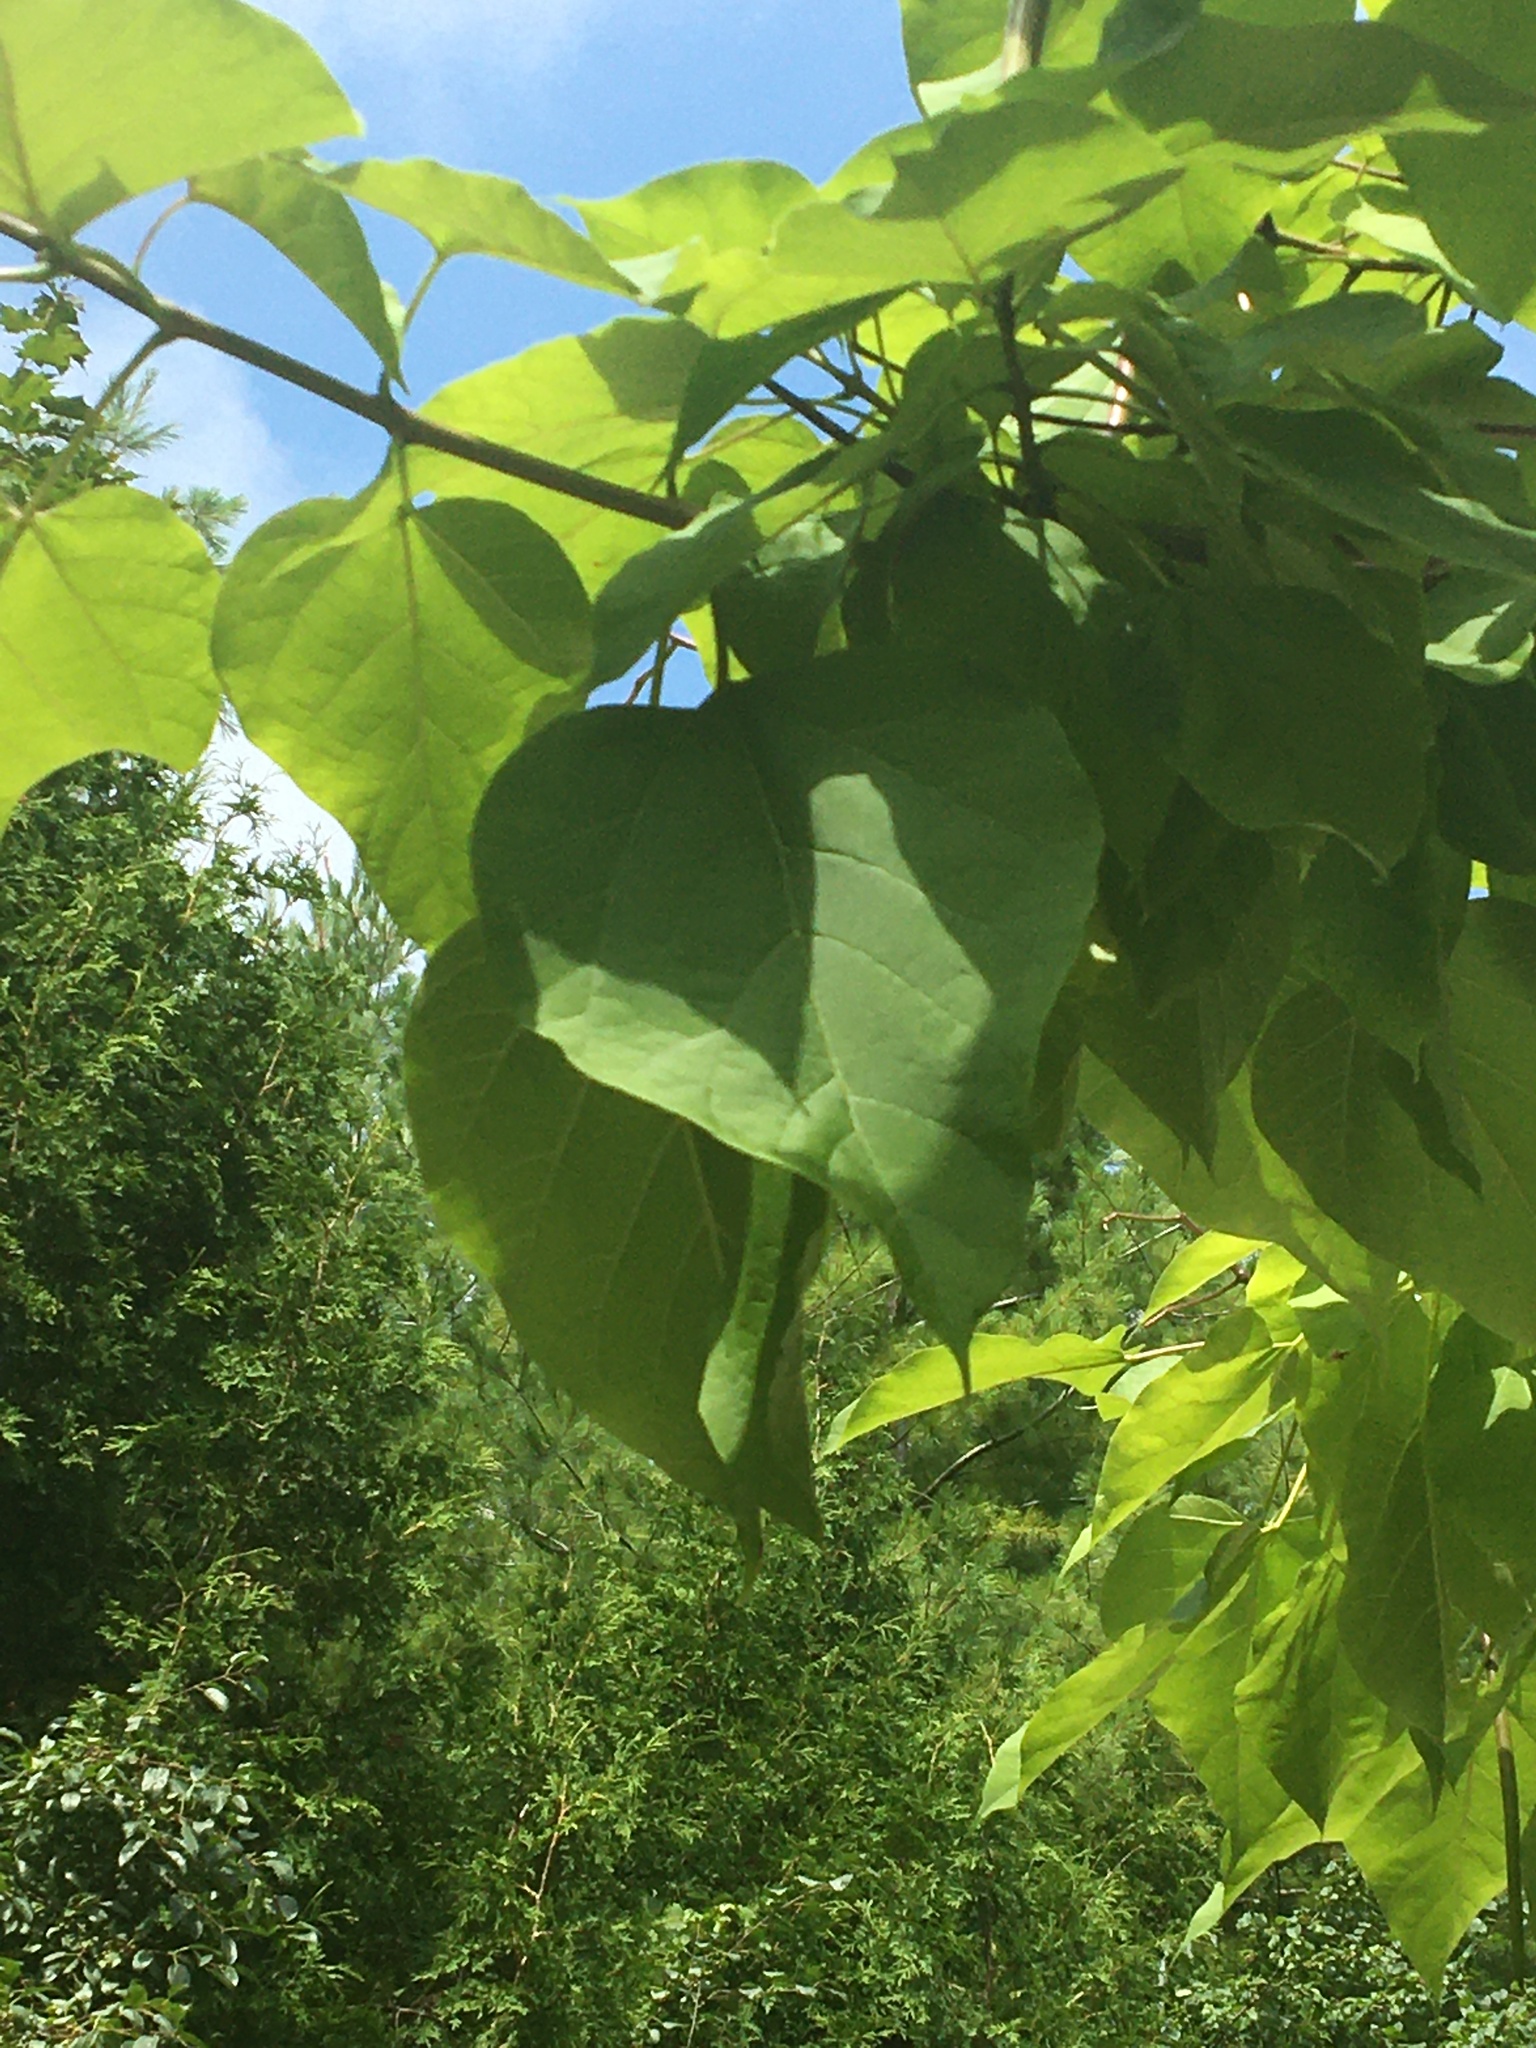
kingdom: Plantae
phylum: Tracheophyta
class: Magnoliopsida
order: Lamiales
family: Bignoniaceae
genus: Catalpa
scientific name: Catalpa speciosa
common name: Northern catalpa
